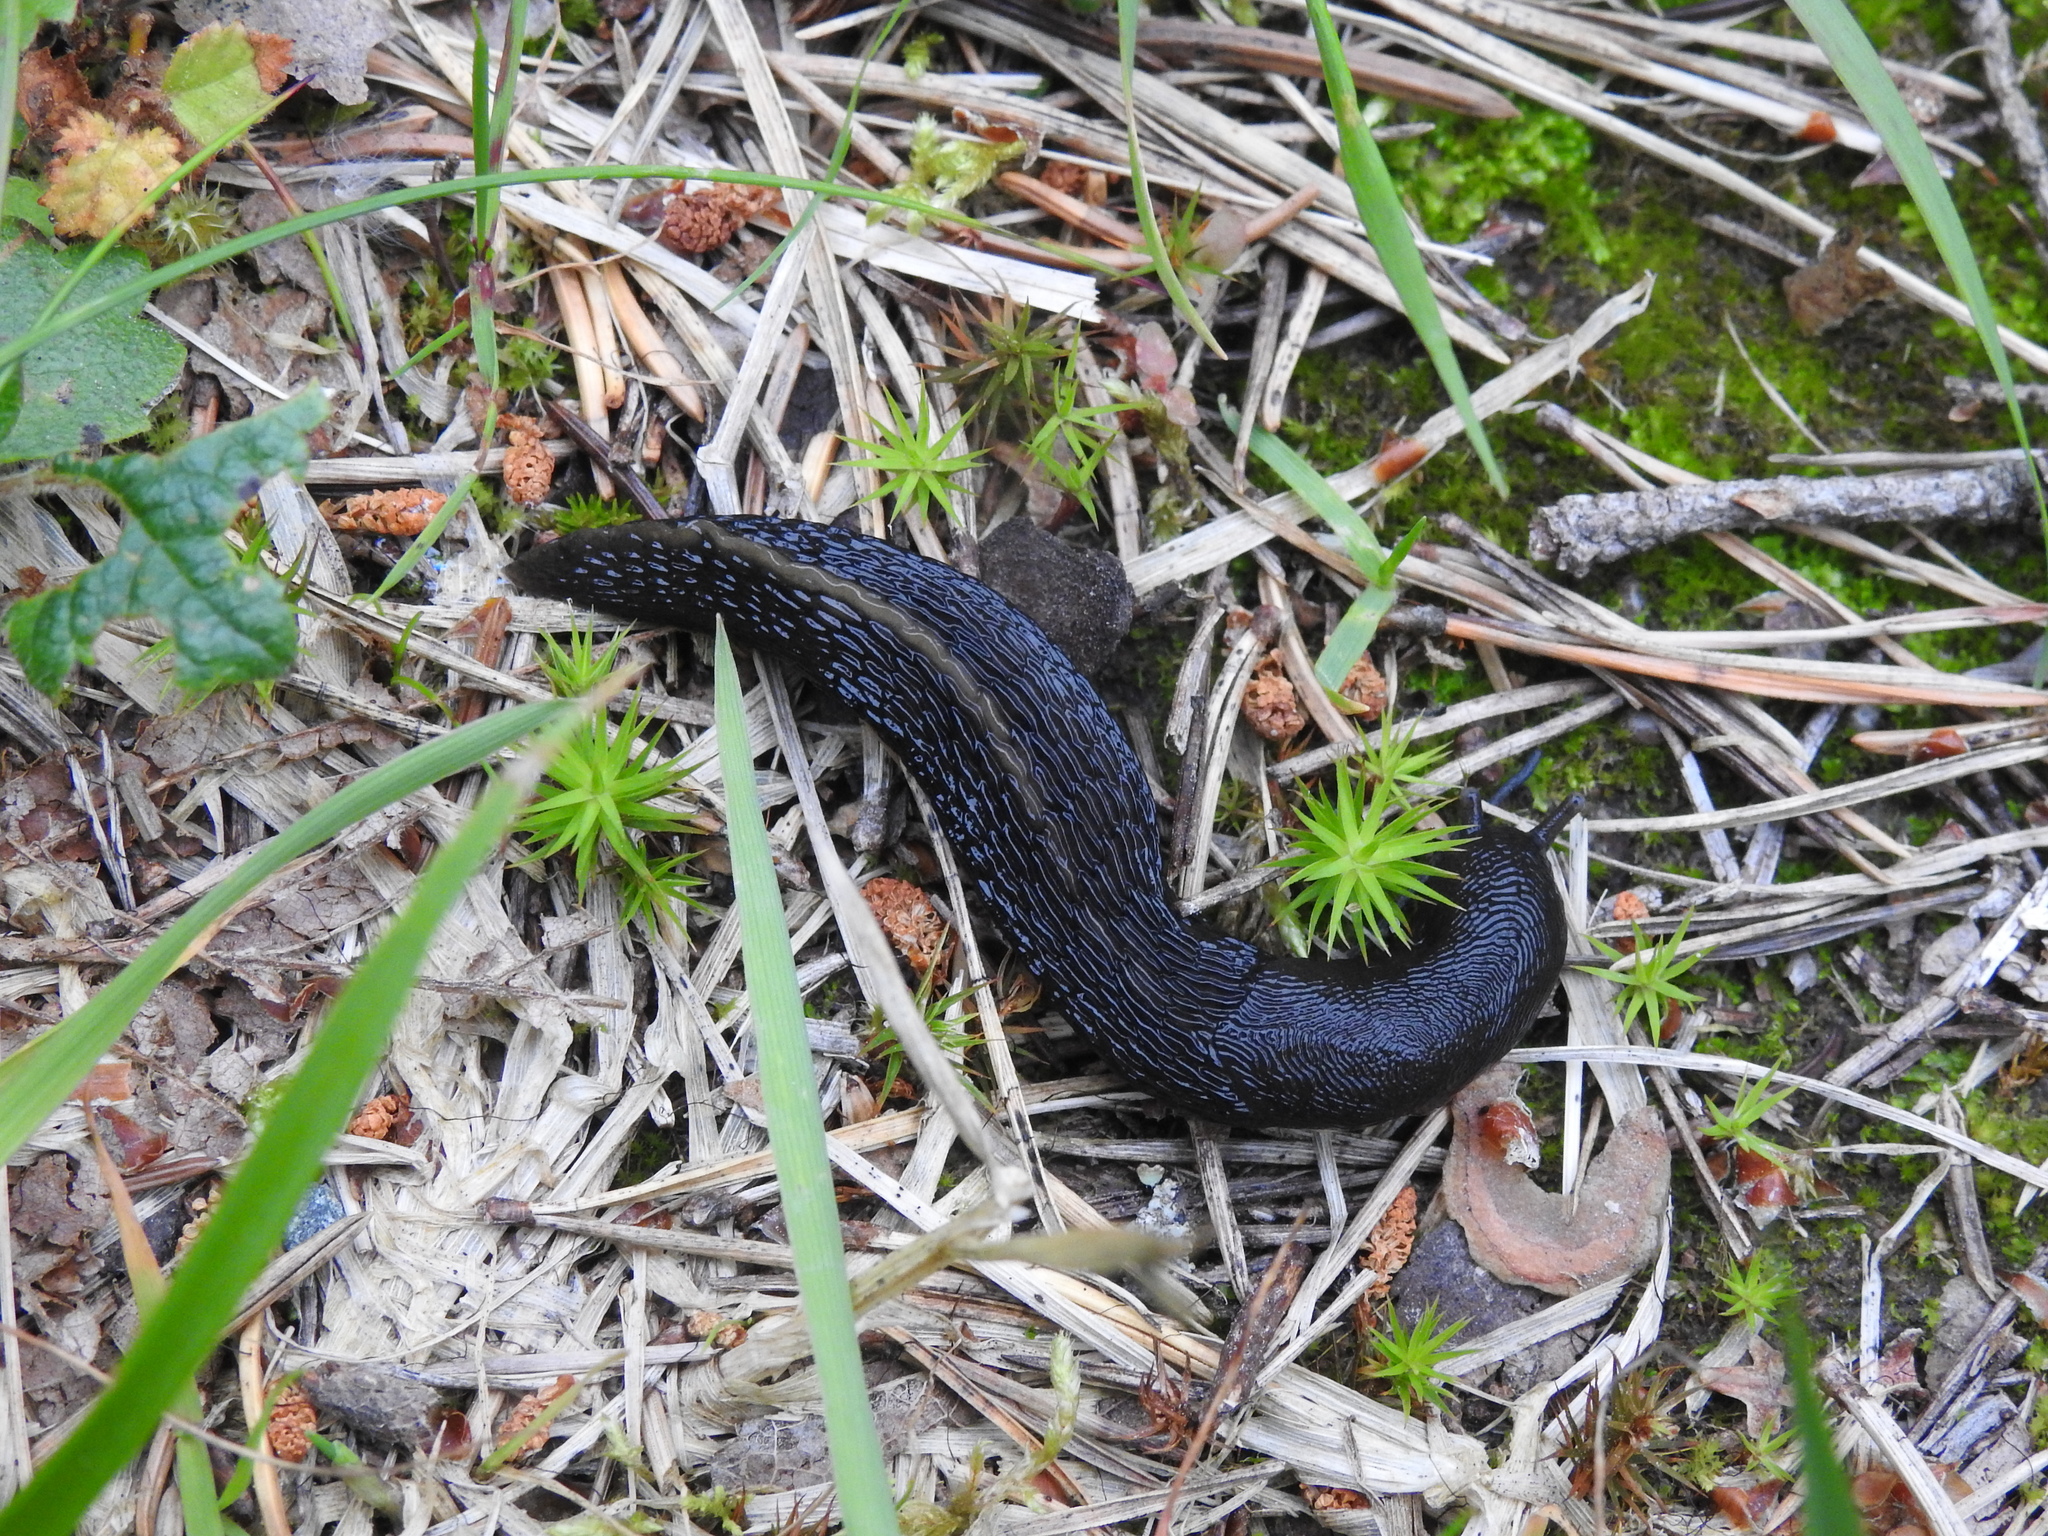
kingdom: Animalia
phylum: Mollusca
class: Gastropoda
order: Stylommatophora
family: Limacidae
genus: Limax
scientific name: Limax cinereoniger
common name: Ash-black slug
